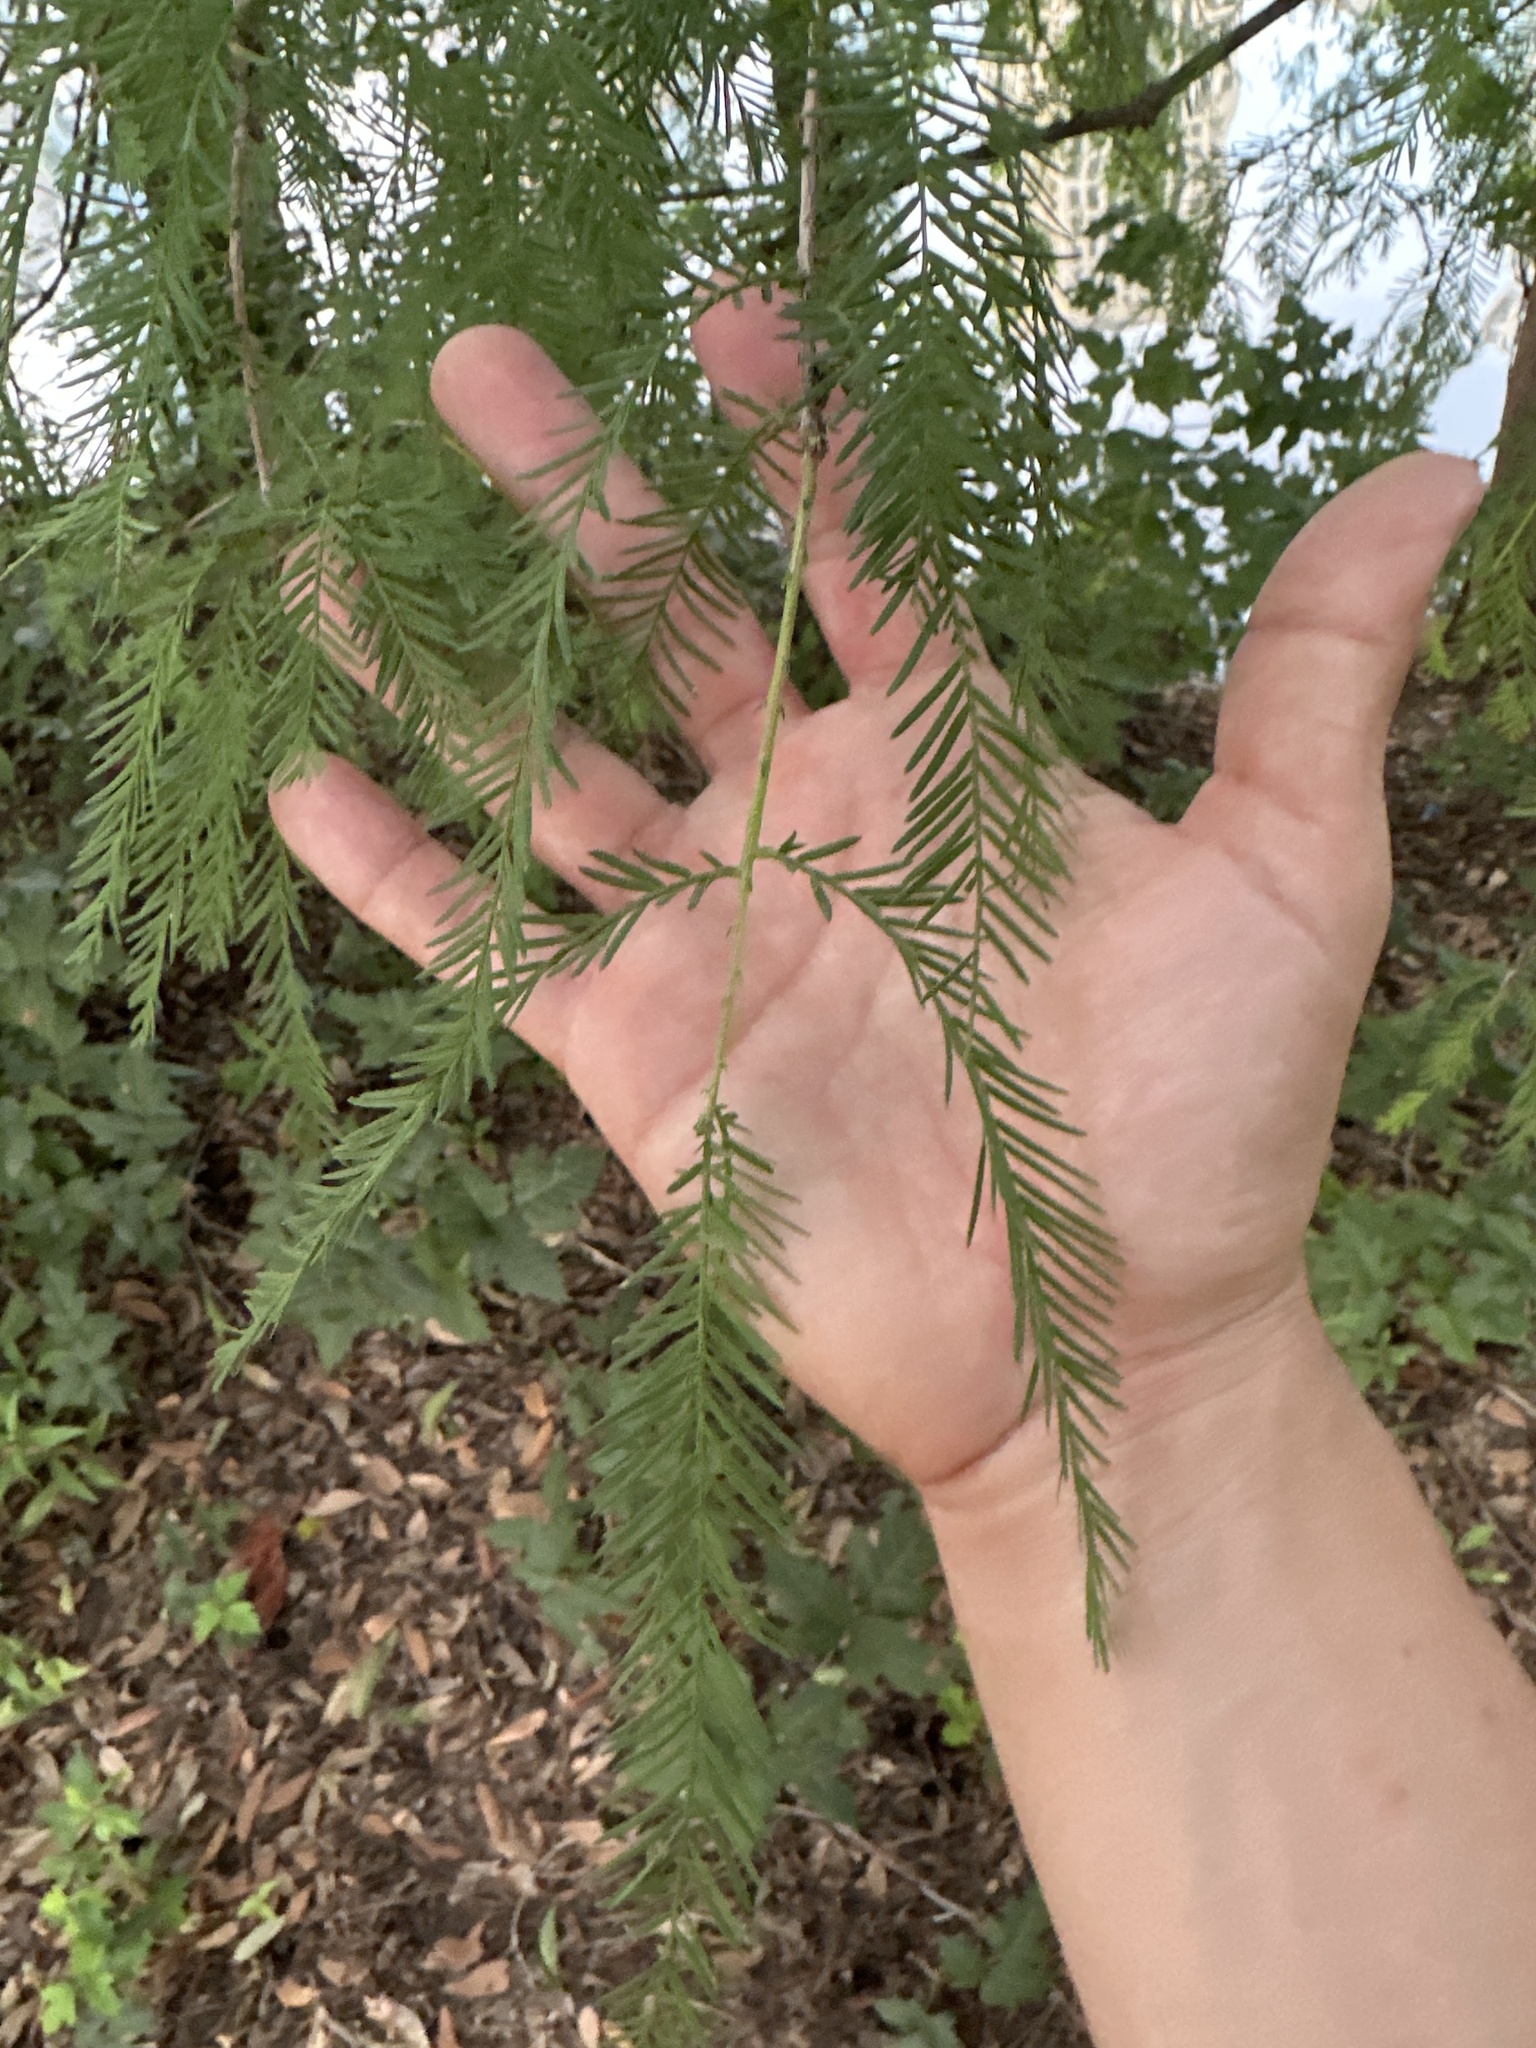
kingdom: Plantae
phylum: Tracheophyta
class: Pinopsida
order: Pinales
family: Cupressaceae
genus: Taxodium
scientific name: Taxodium distichum
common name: Bald cypress
